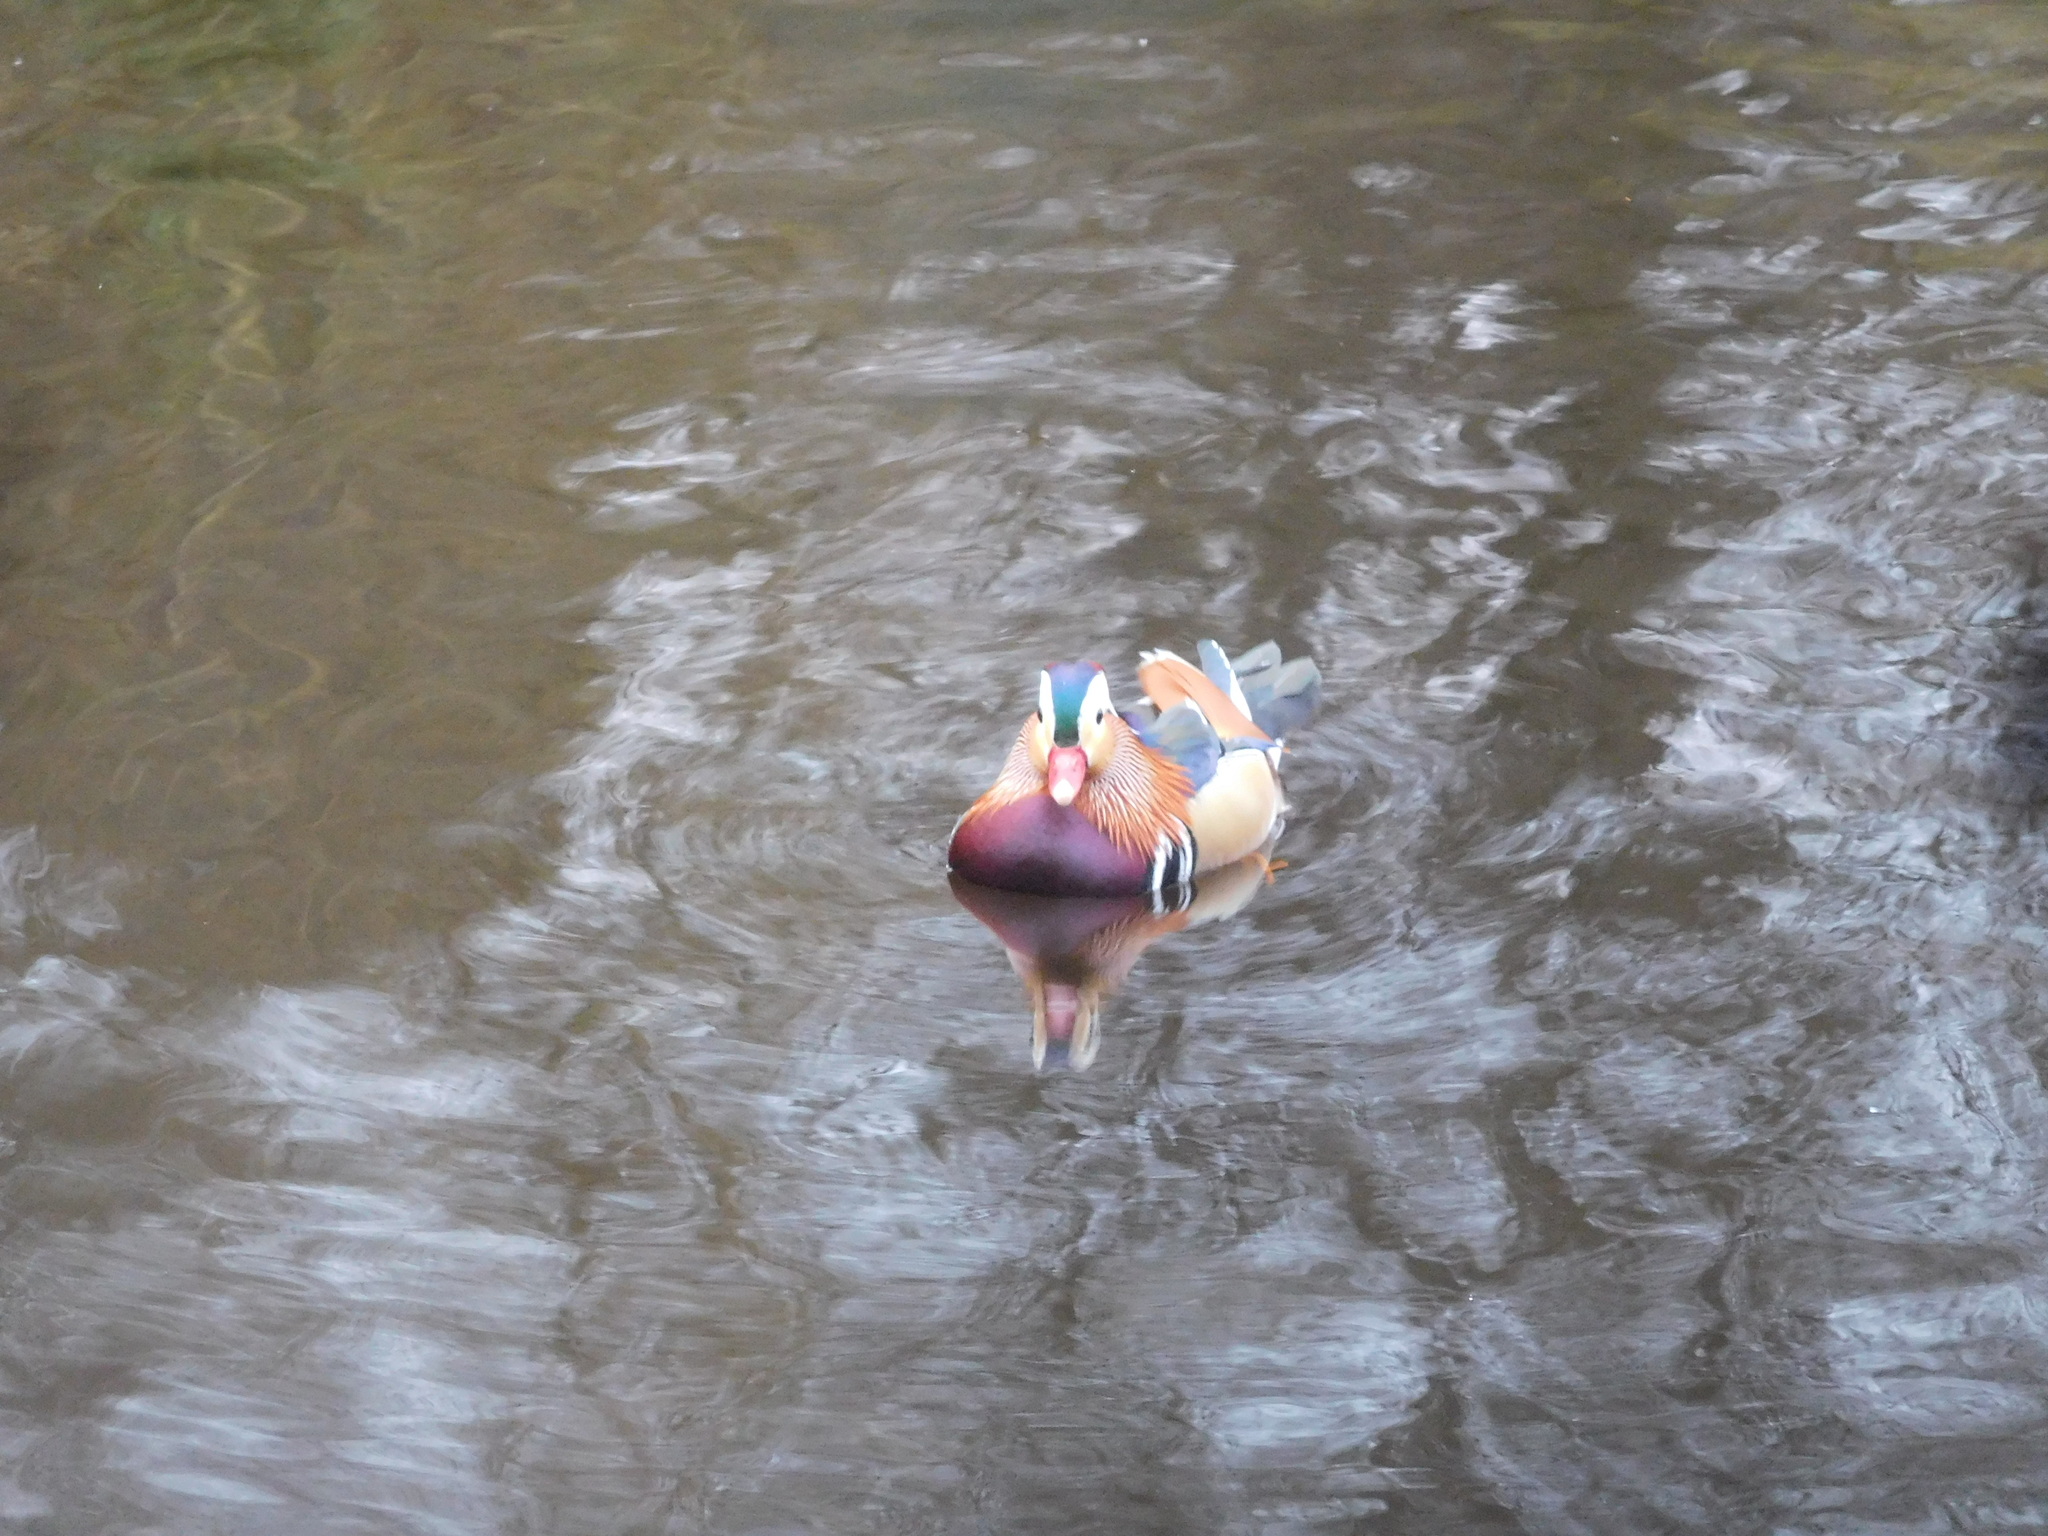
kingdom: Animalia
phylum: Chordata
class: Aves
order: Anseriformes
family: Anatidae
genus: Aix
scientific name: Aix galericulata
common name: Mandarin duck
